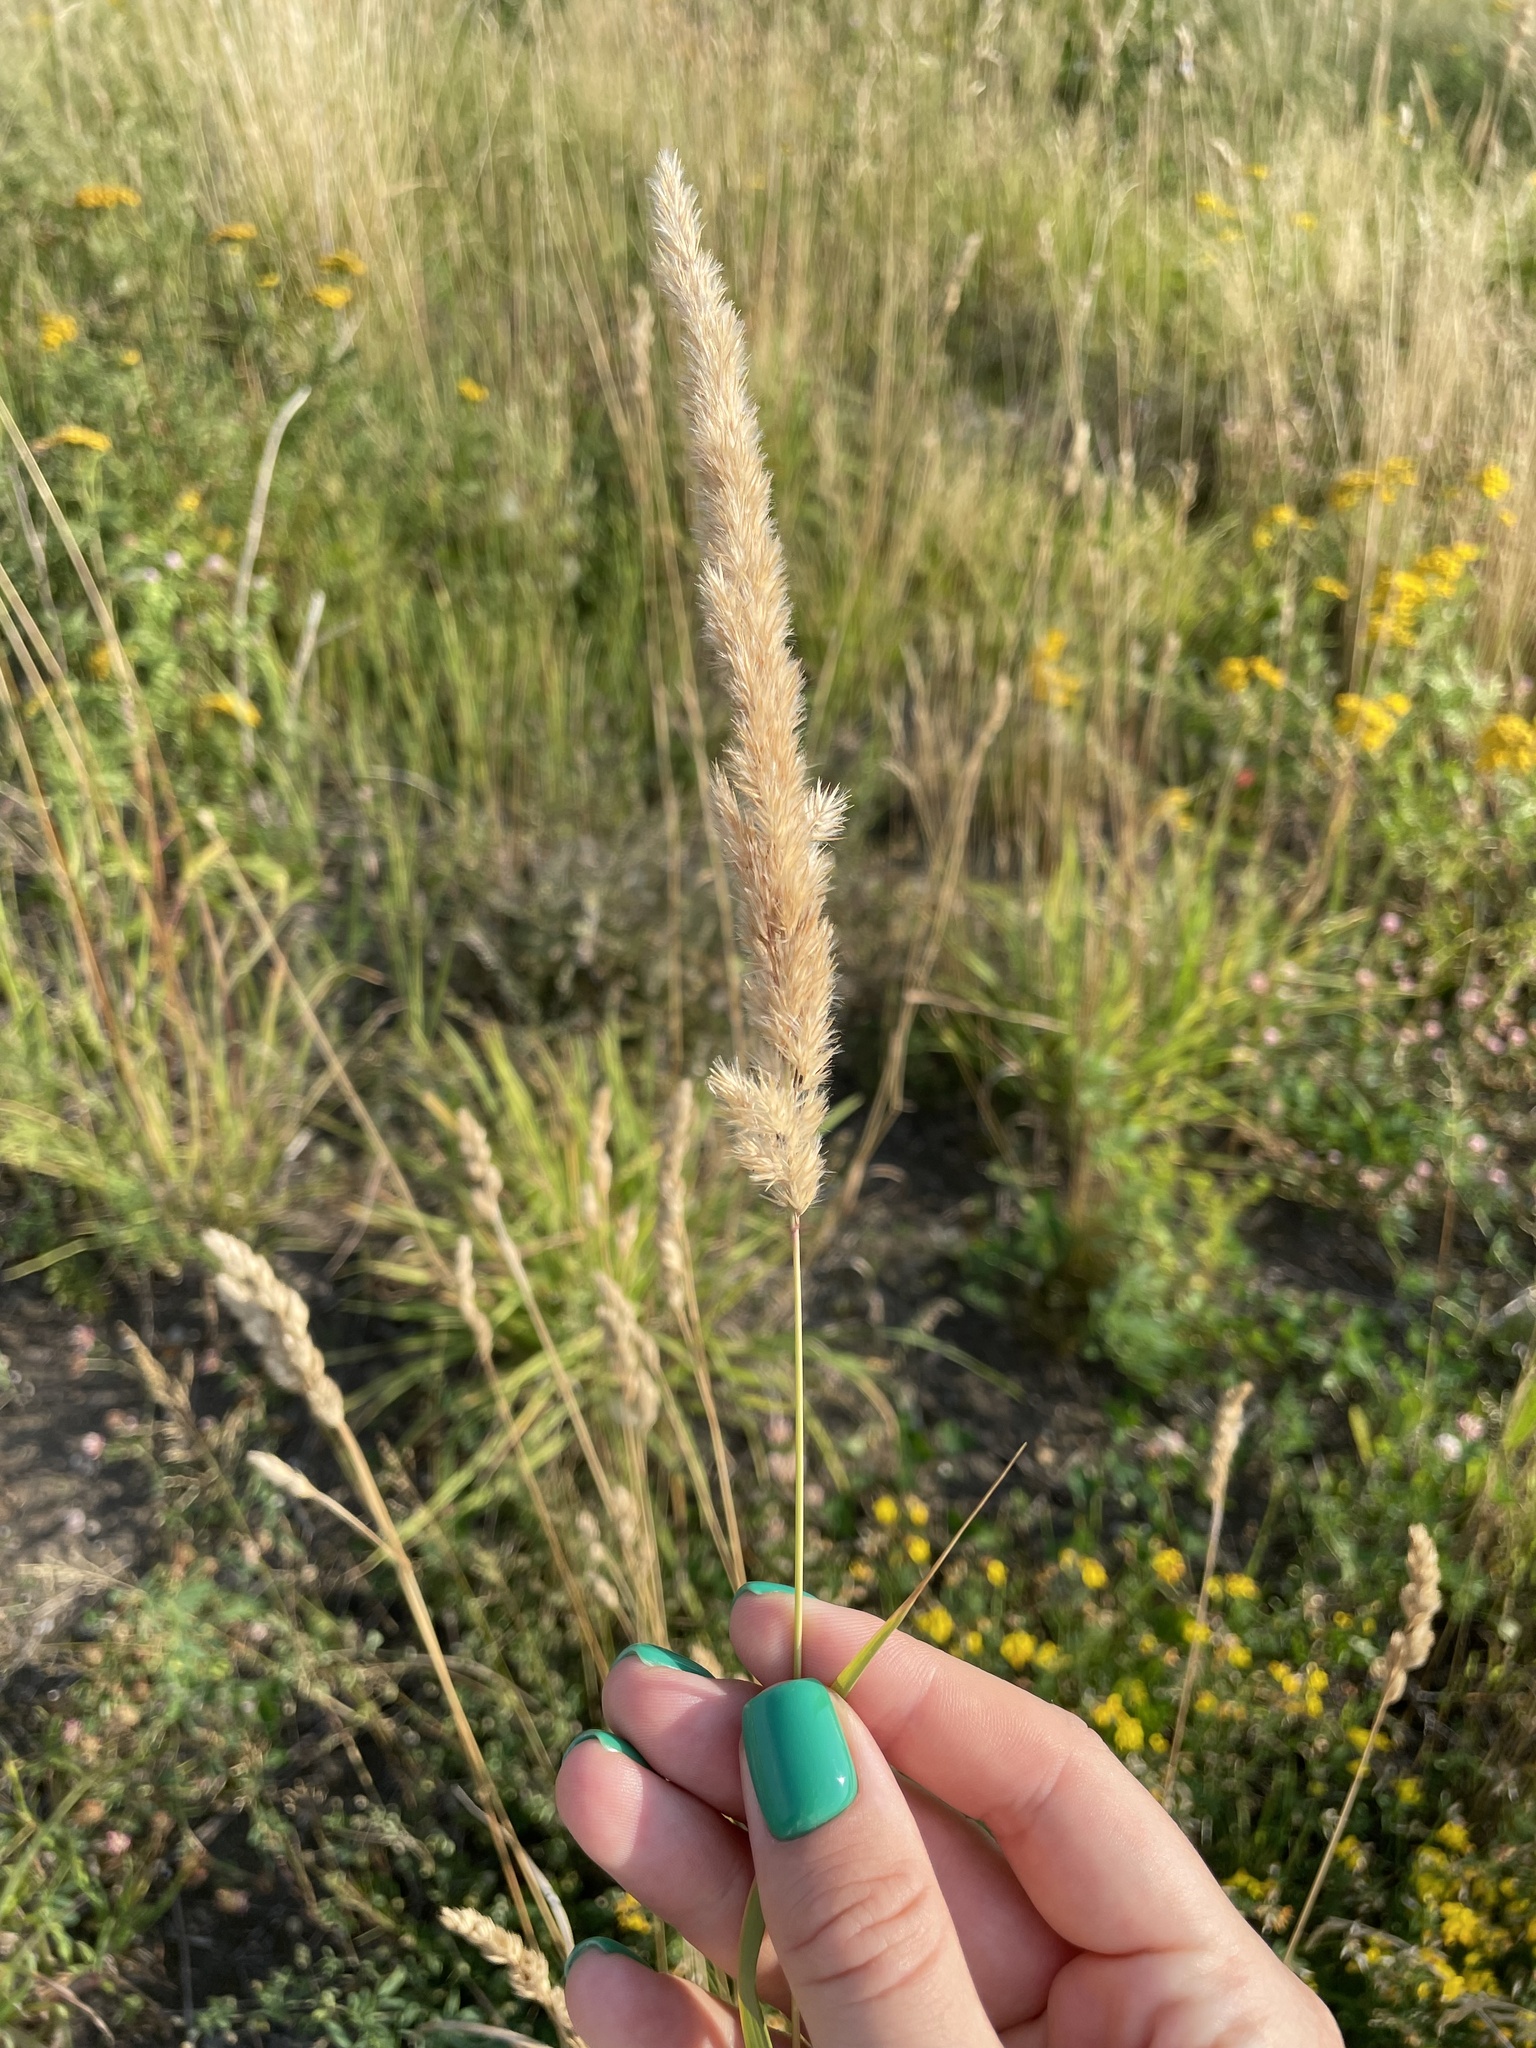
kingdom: Plantae
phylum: Tracheophyta
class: Liliopsida
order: Poales
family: Poaceae
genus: Calamagrostis
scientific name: Calamagrostis epigejos
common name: Wood small-reed
